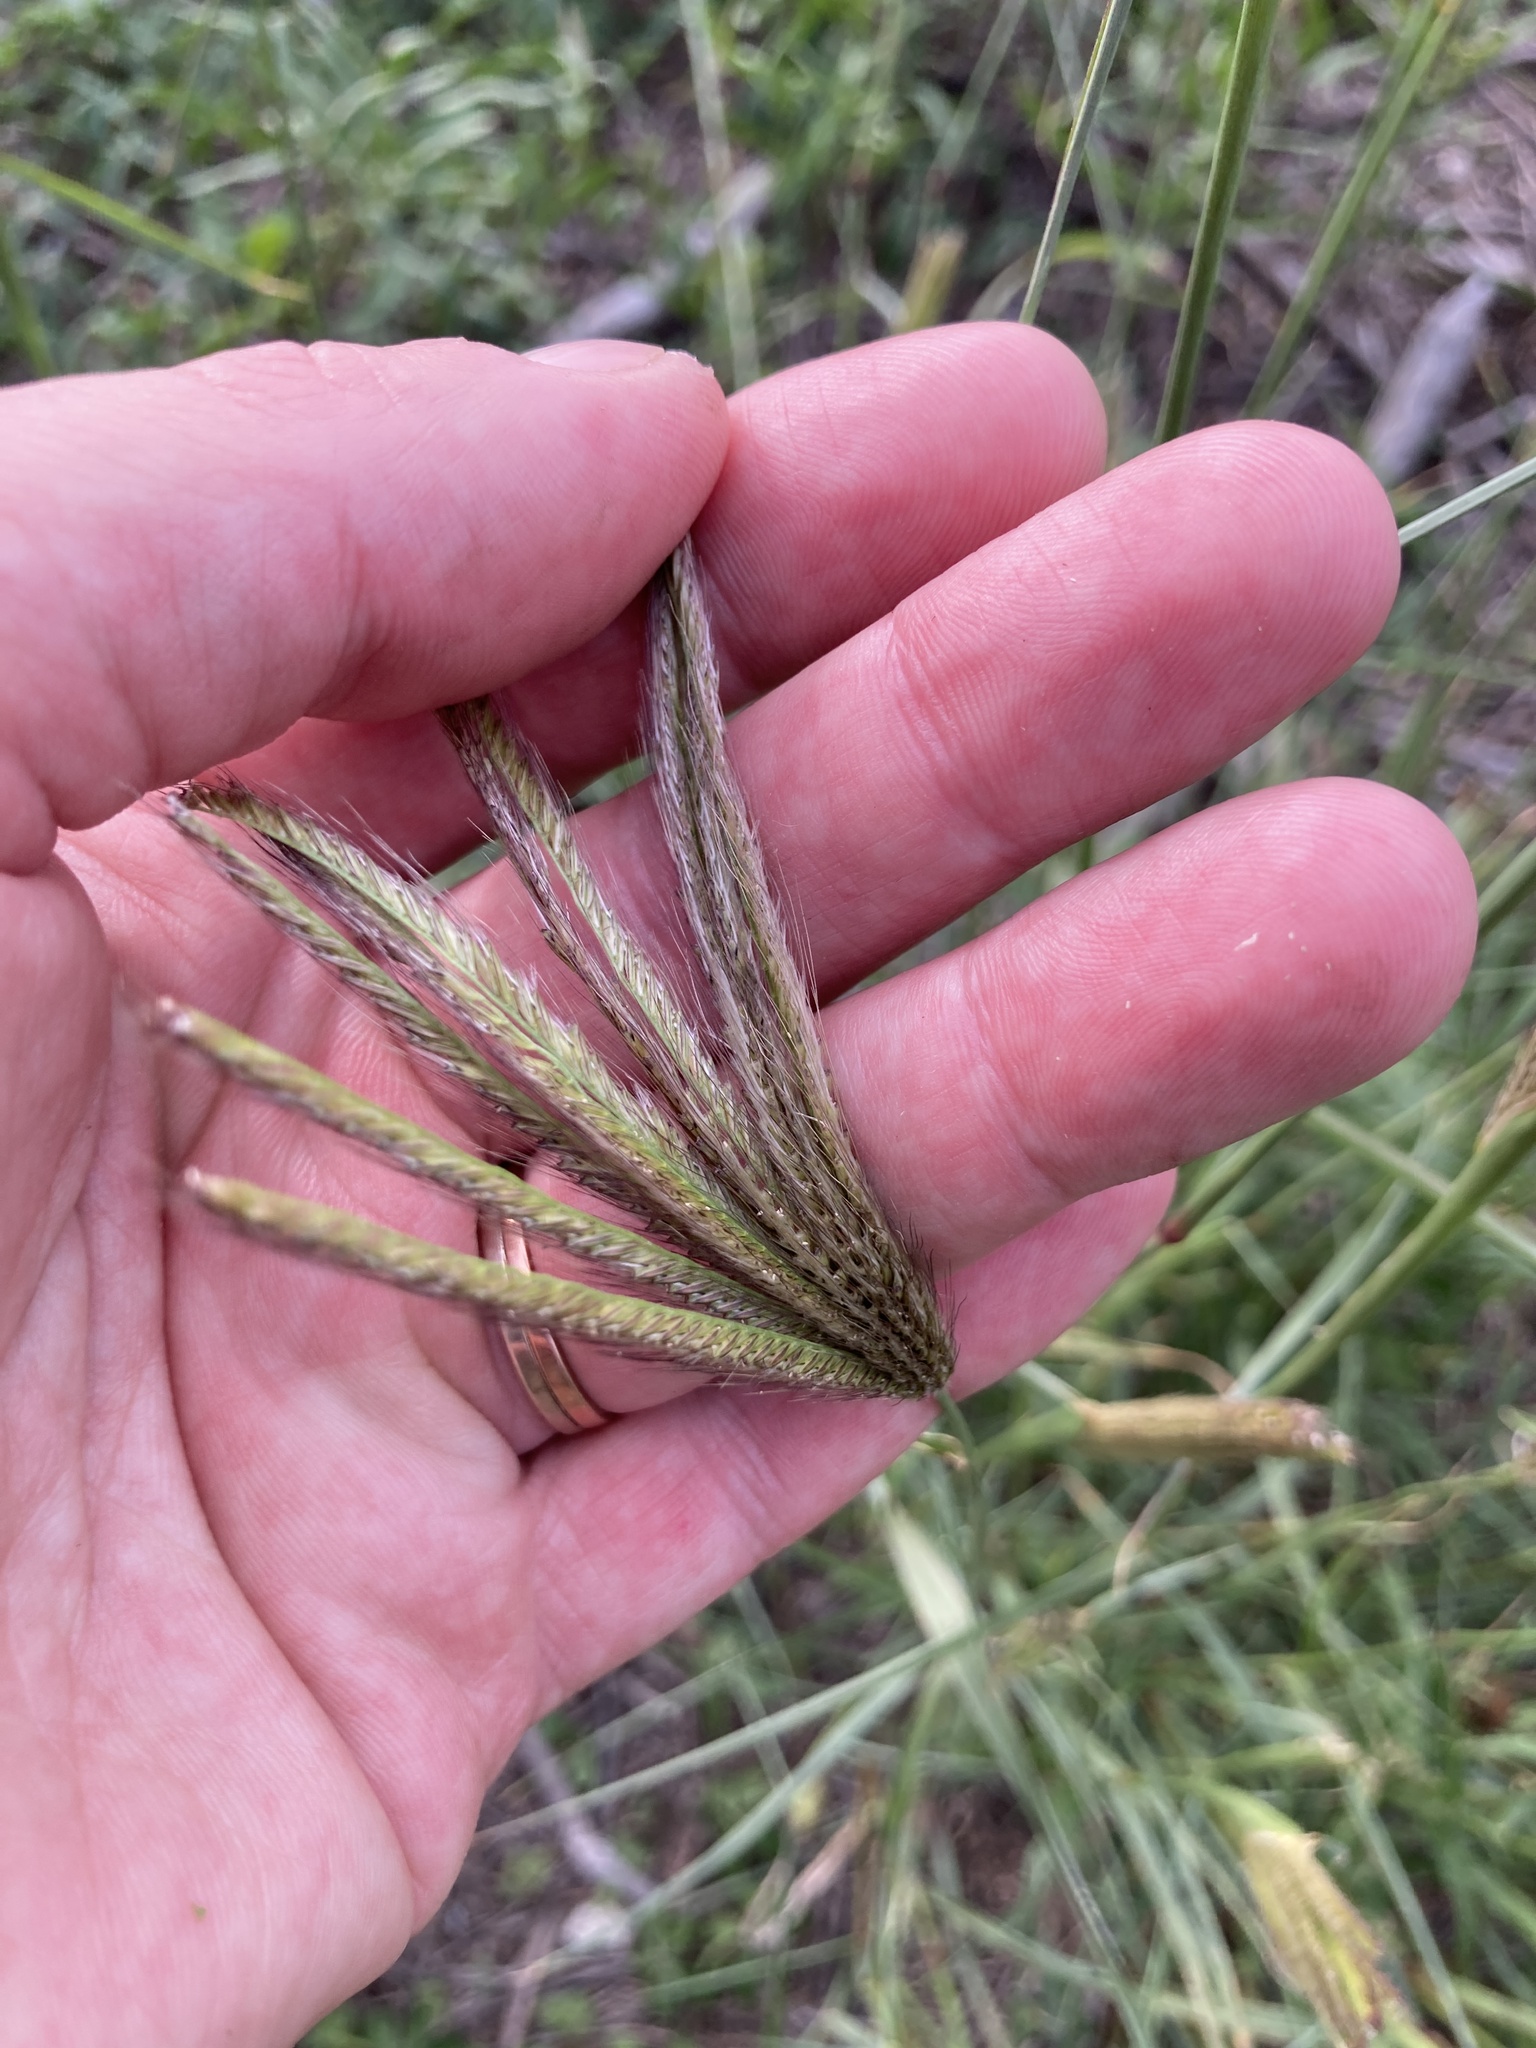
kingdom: Plantae
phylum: Tracheophyta
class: Liliopsida
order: Poales
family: Poaceae
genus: Chloris
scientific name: Chloris virgata
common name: Feathery rhodes-grass
